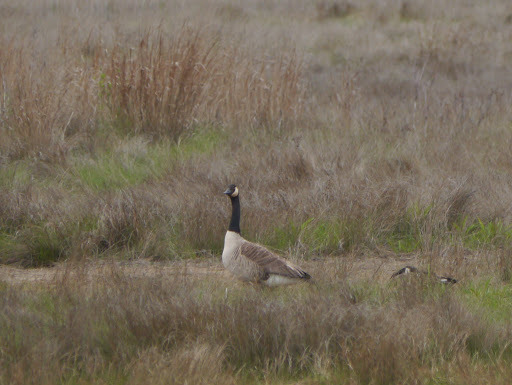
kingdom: Animalia
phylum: Chordata
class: Aves
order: Anseriformes
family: Anatidae
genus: Branta
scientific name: Branta canadensis
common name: Canada goose
